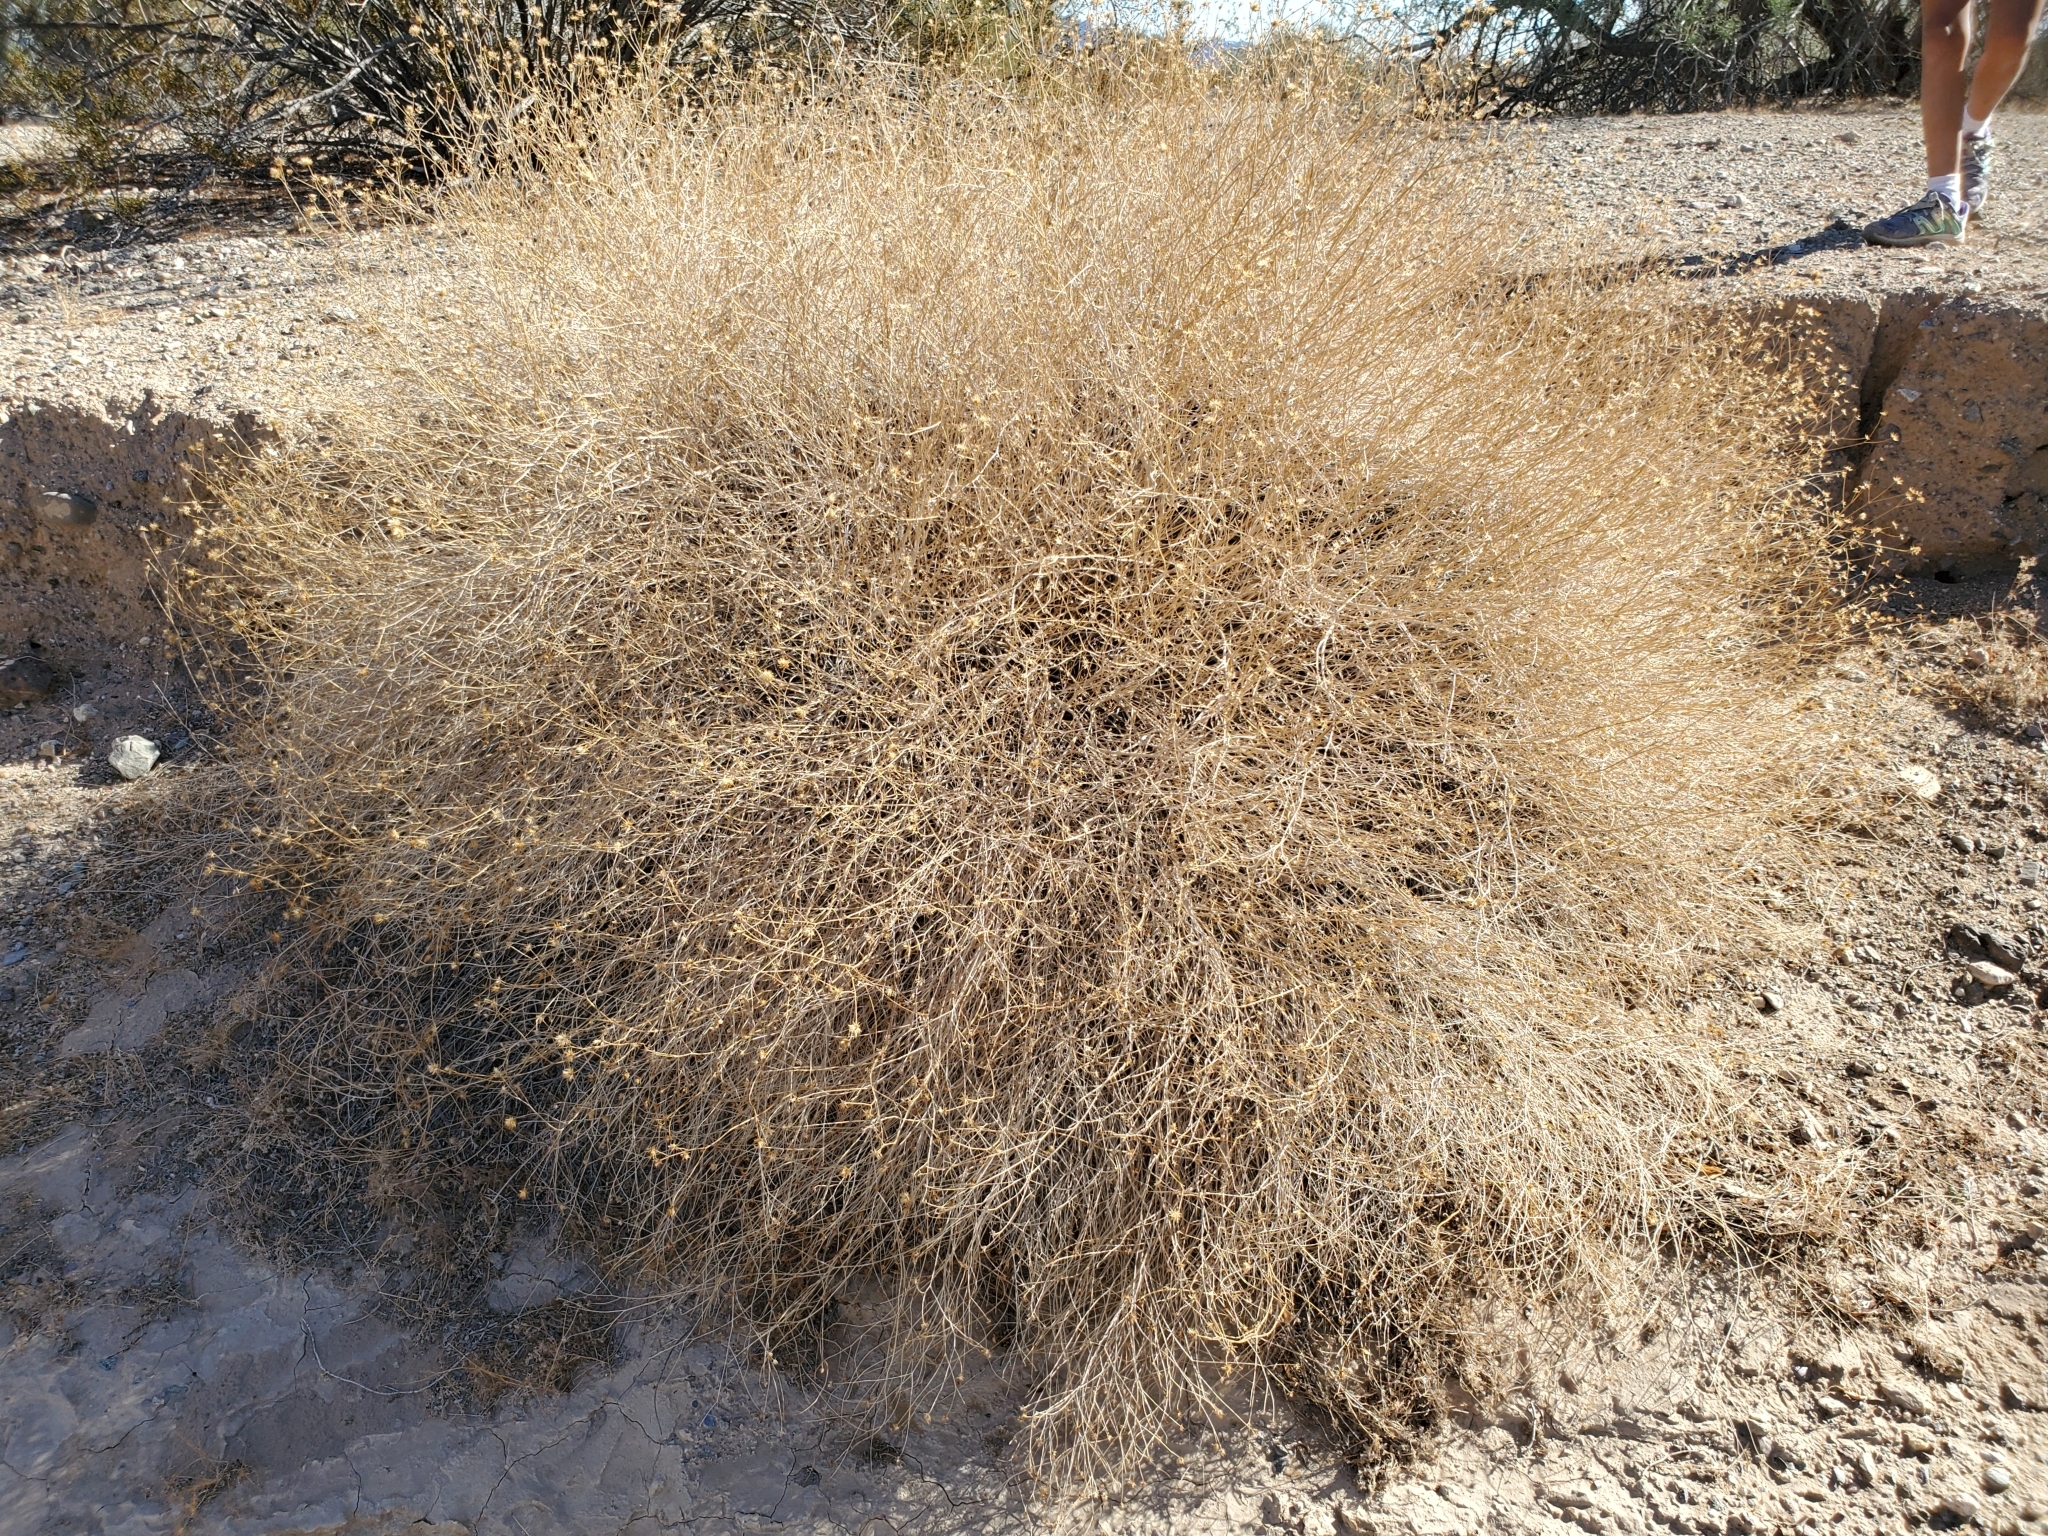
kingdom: Plantae
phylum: Tracheophyta
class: Magnoliopsida
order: Asterales
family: Asteraceae
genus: Bebbia
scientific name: Bebbia juncea
